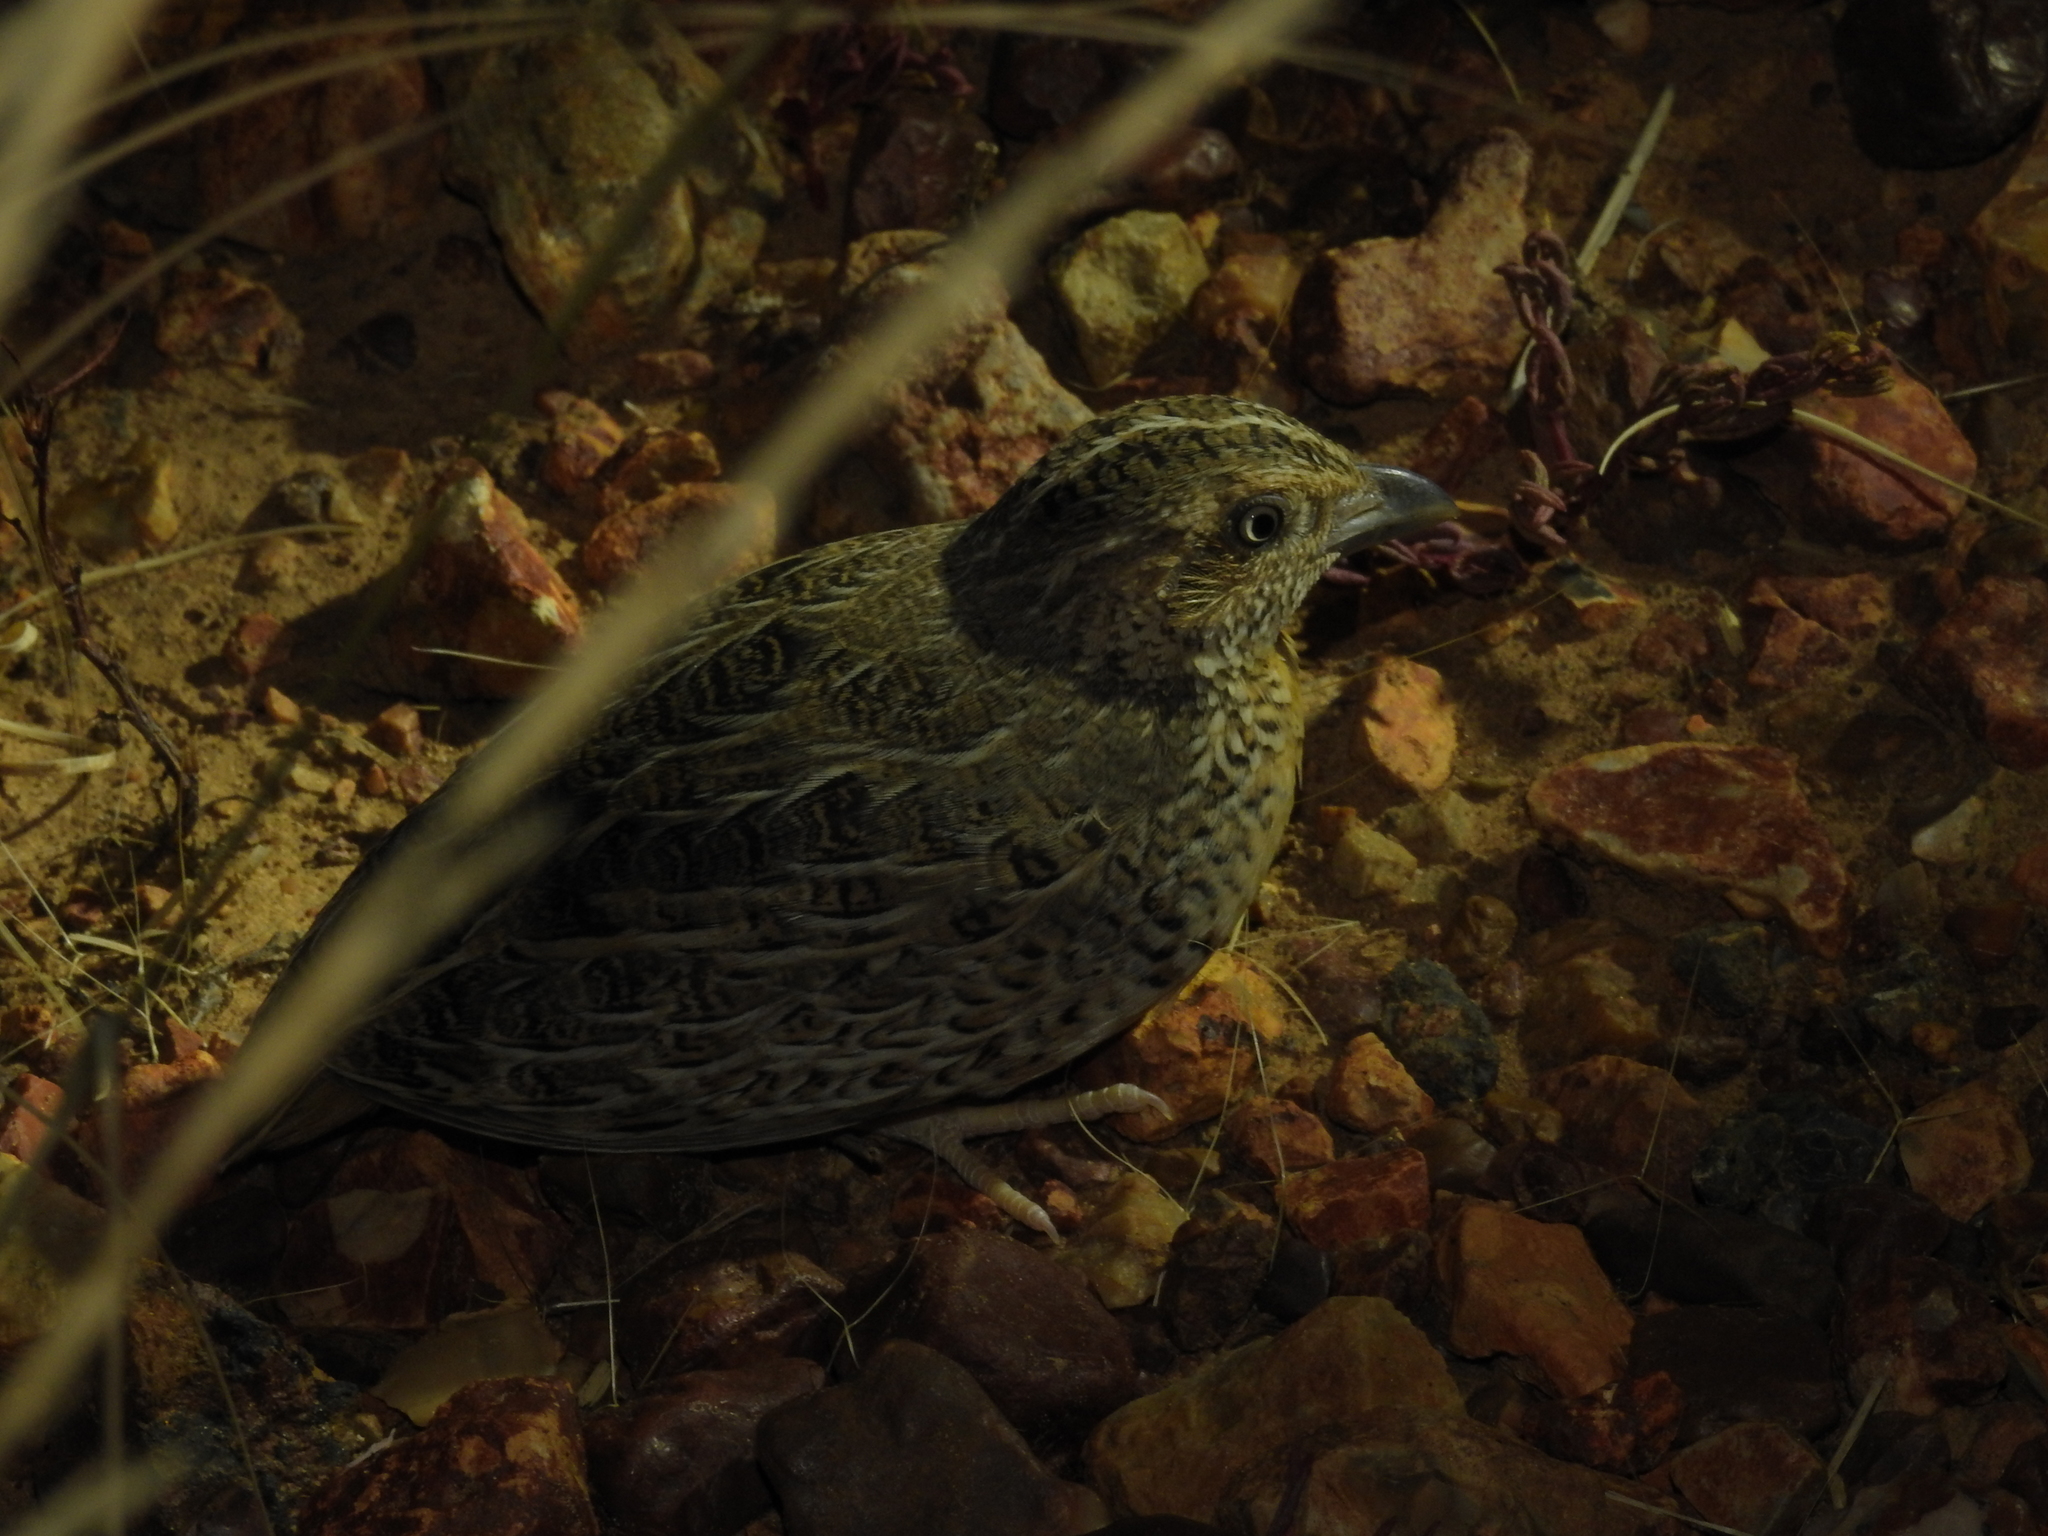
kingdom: Animalia
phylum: Chordata
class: Aves
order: Charadriiformes
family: Turnicidae
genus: Turnix
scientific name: Turnix pyrrhothorax
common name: Red-chested buttonquail
